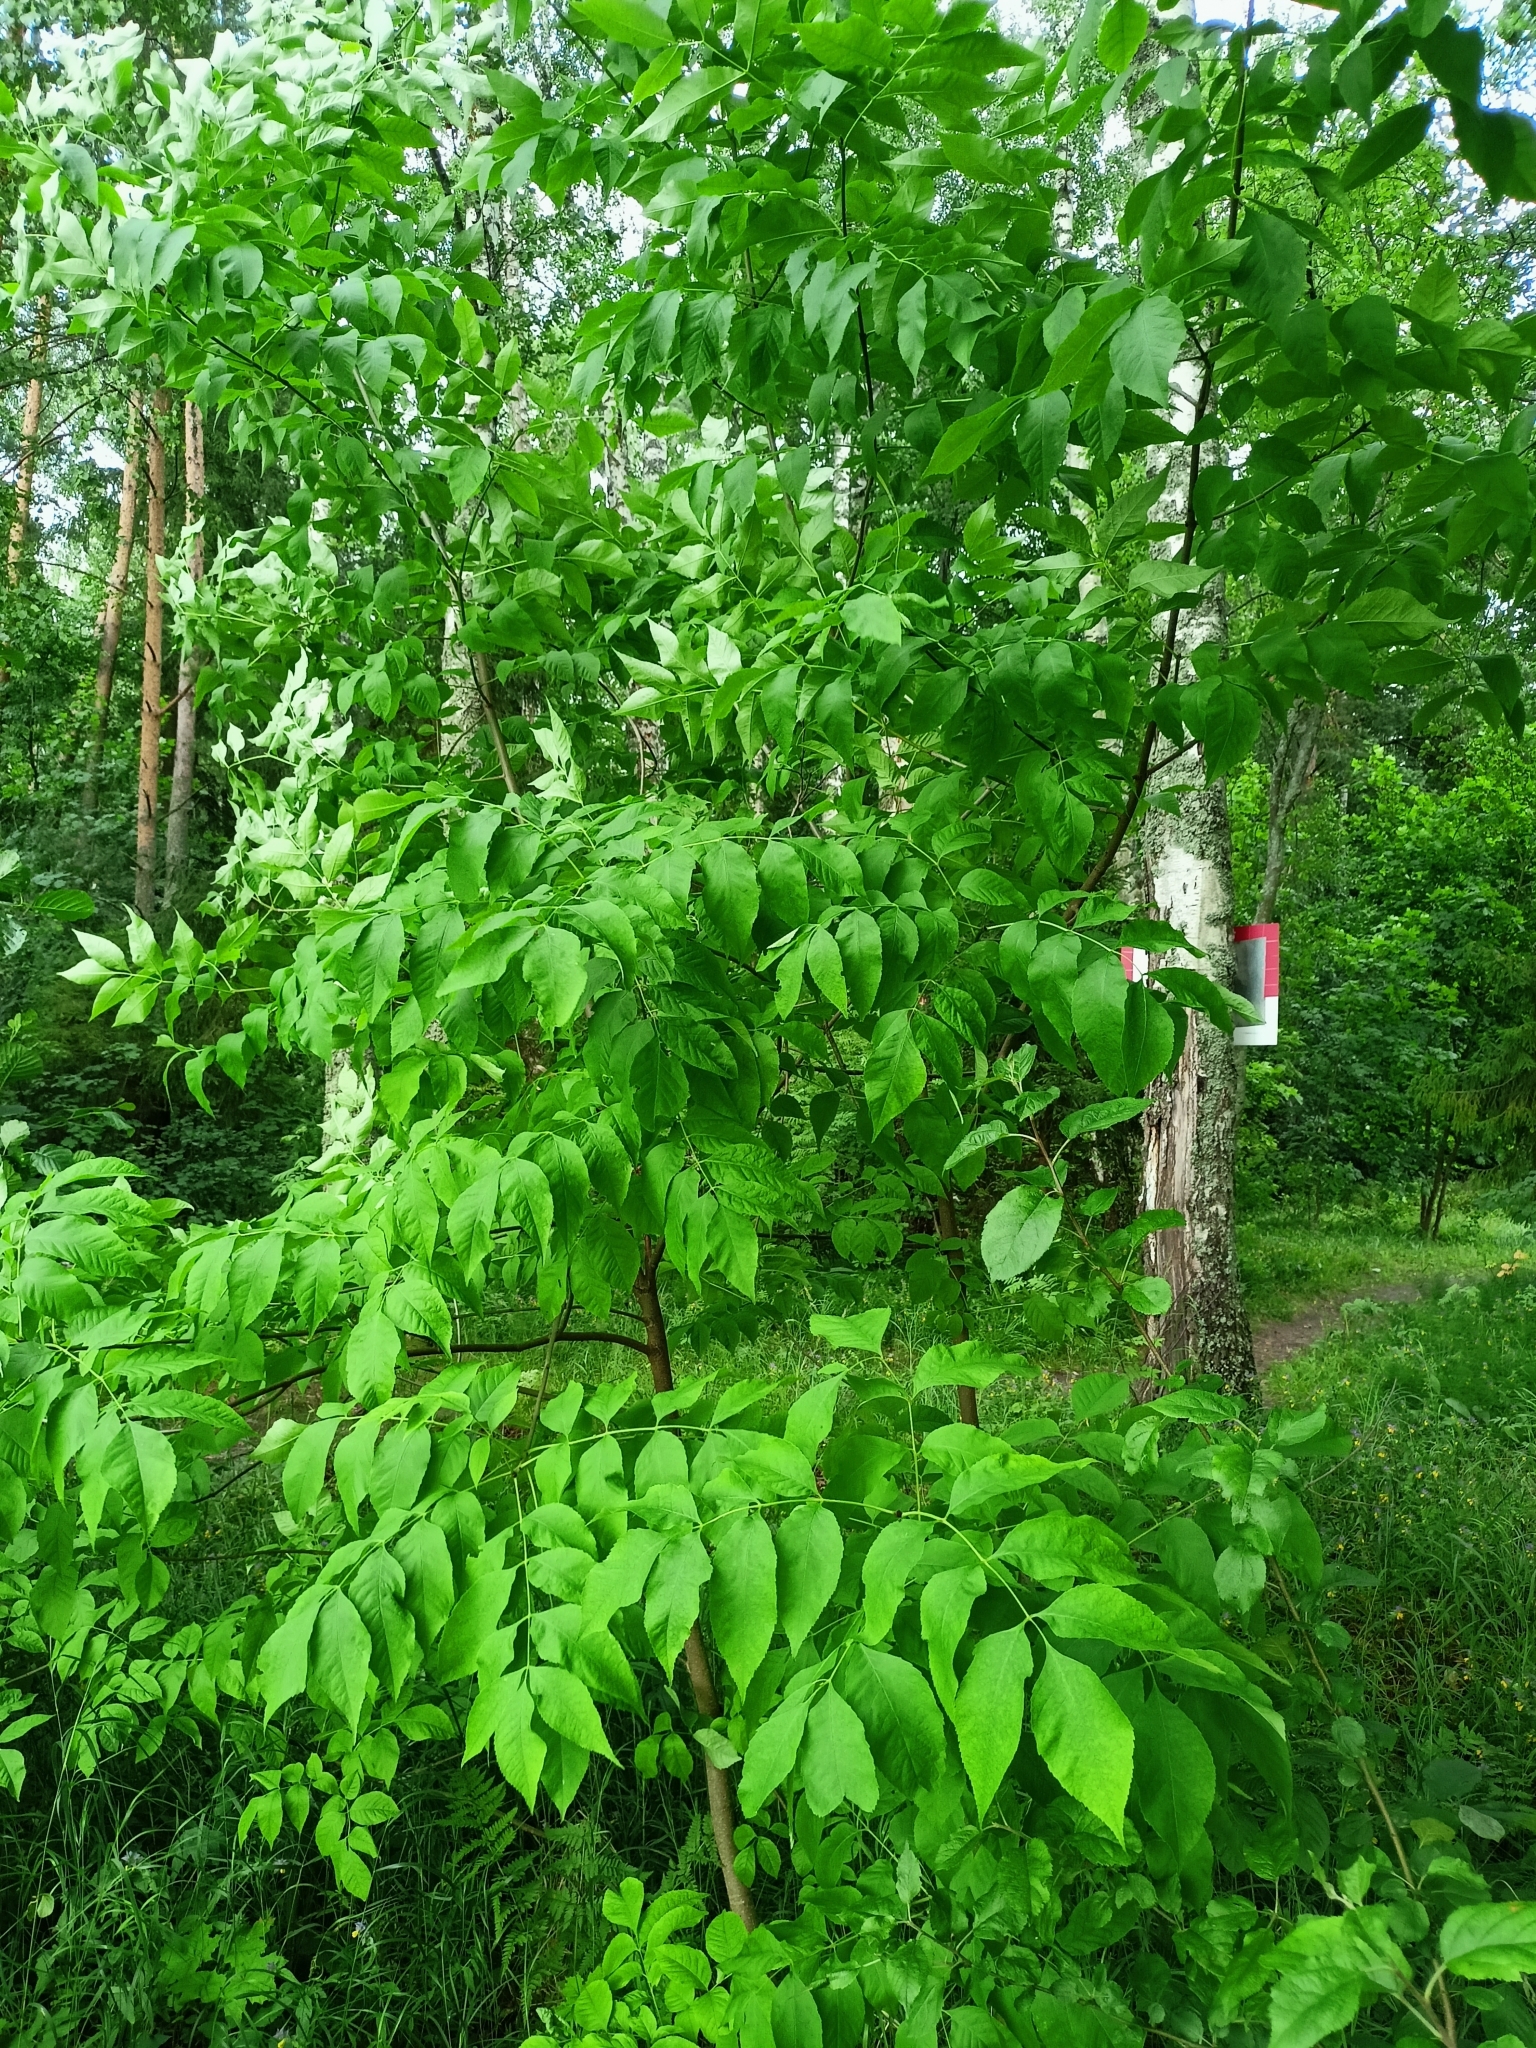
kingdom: Plantae
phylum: Tracheophyta
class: Magnoliopsida
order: Lamiales
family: Oleaceae
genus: Fraxinus
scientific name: Fraxinus pennsylvanica
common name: Green ash
